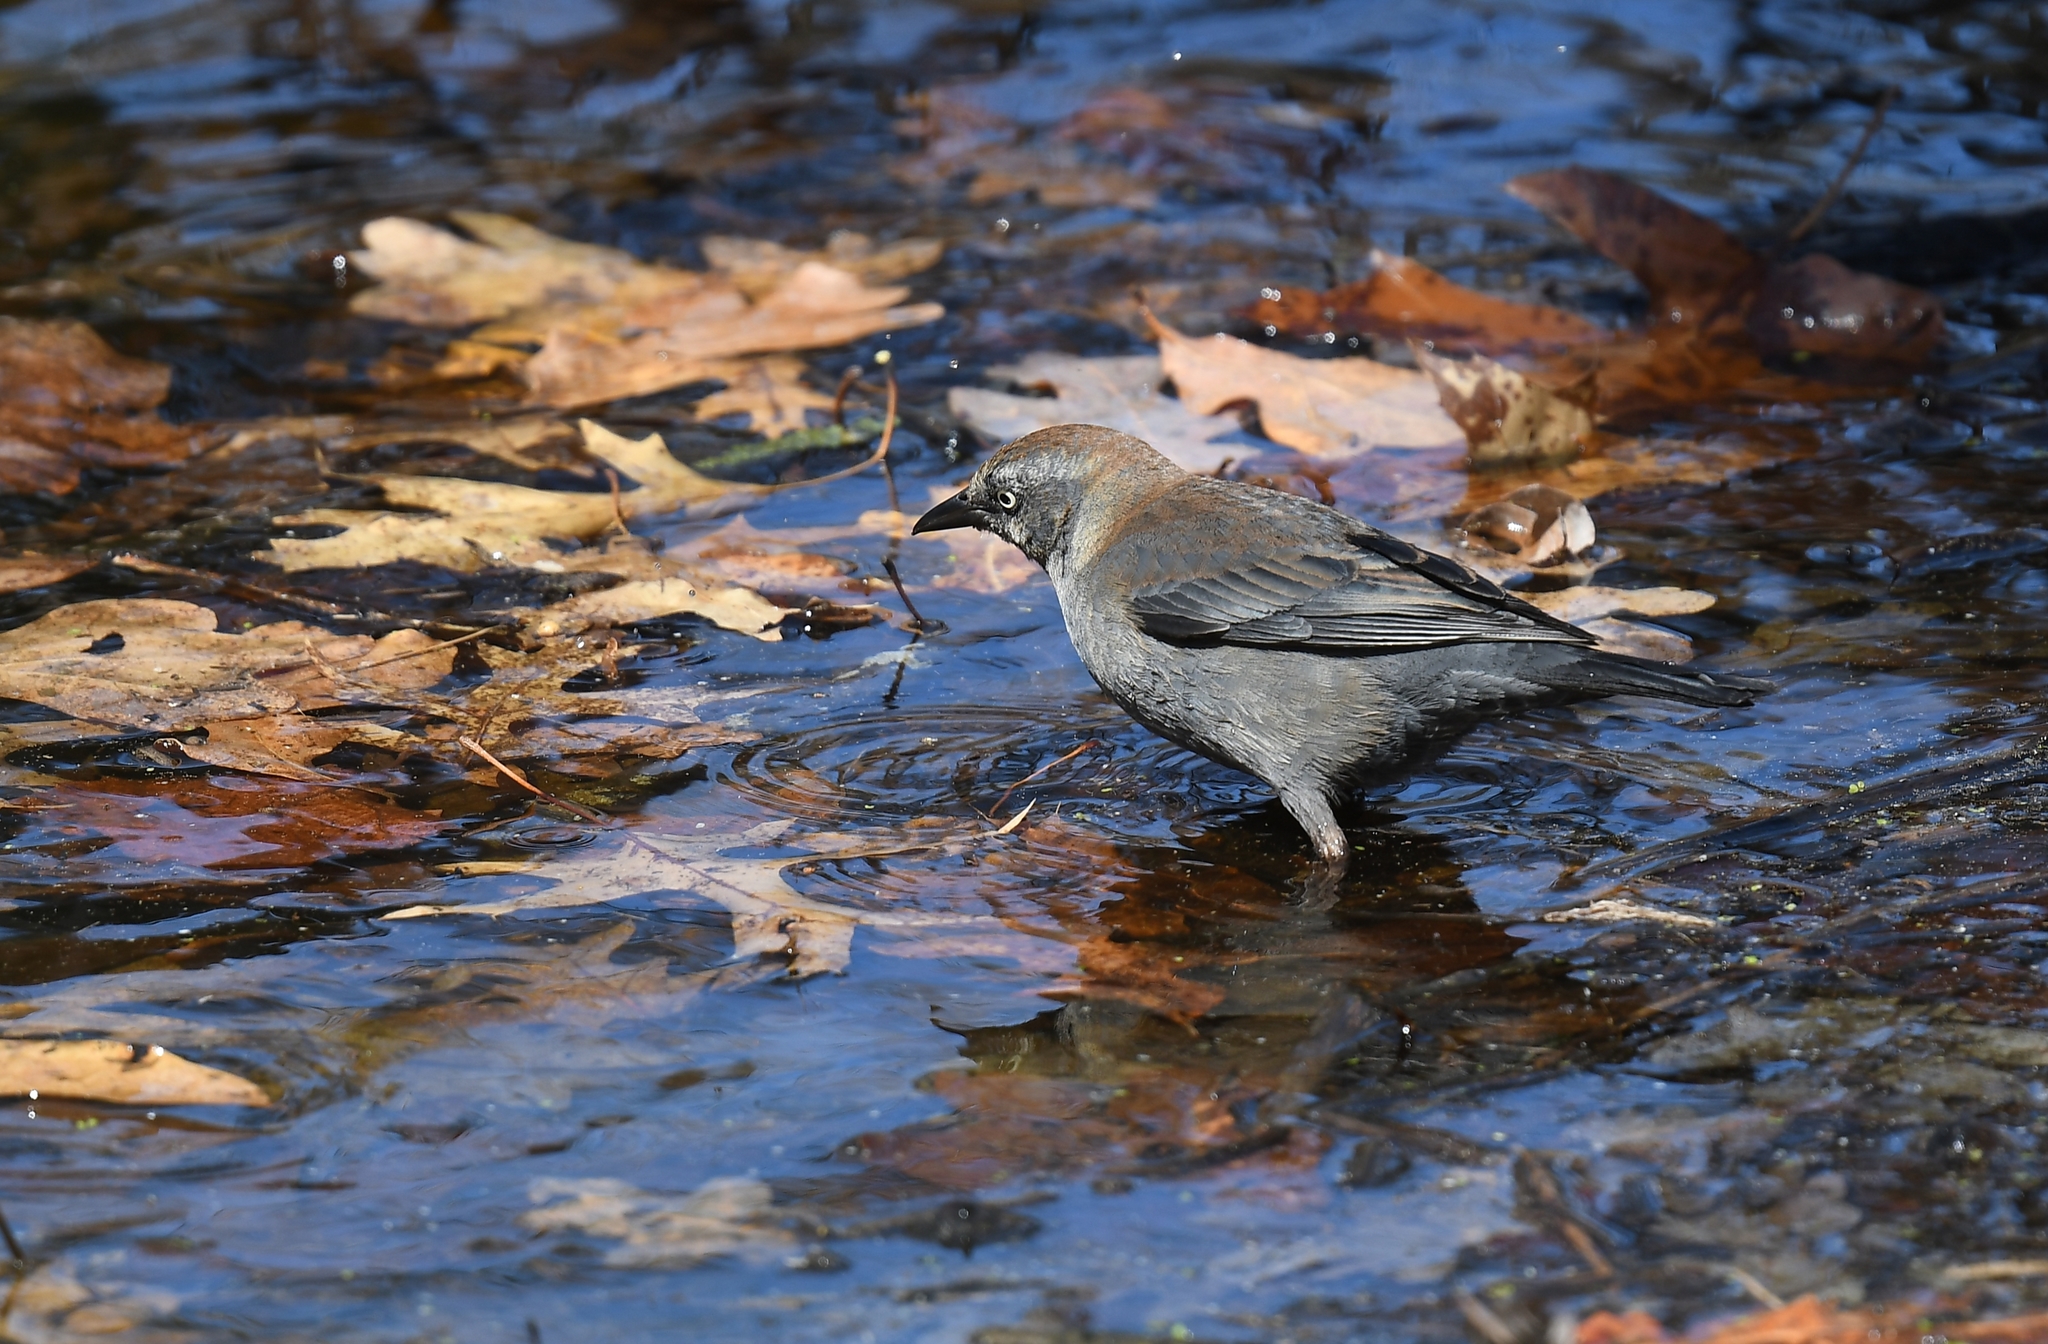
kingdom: Animalia
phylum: Chordata
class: Aves
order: Passeriformes
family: Icteridae
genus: Euphagus
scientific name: Euphagus carolinus
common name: Rusty blackbird
